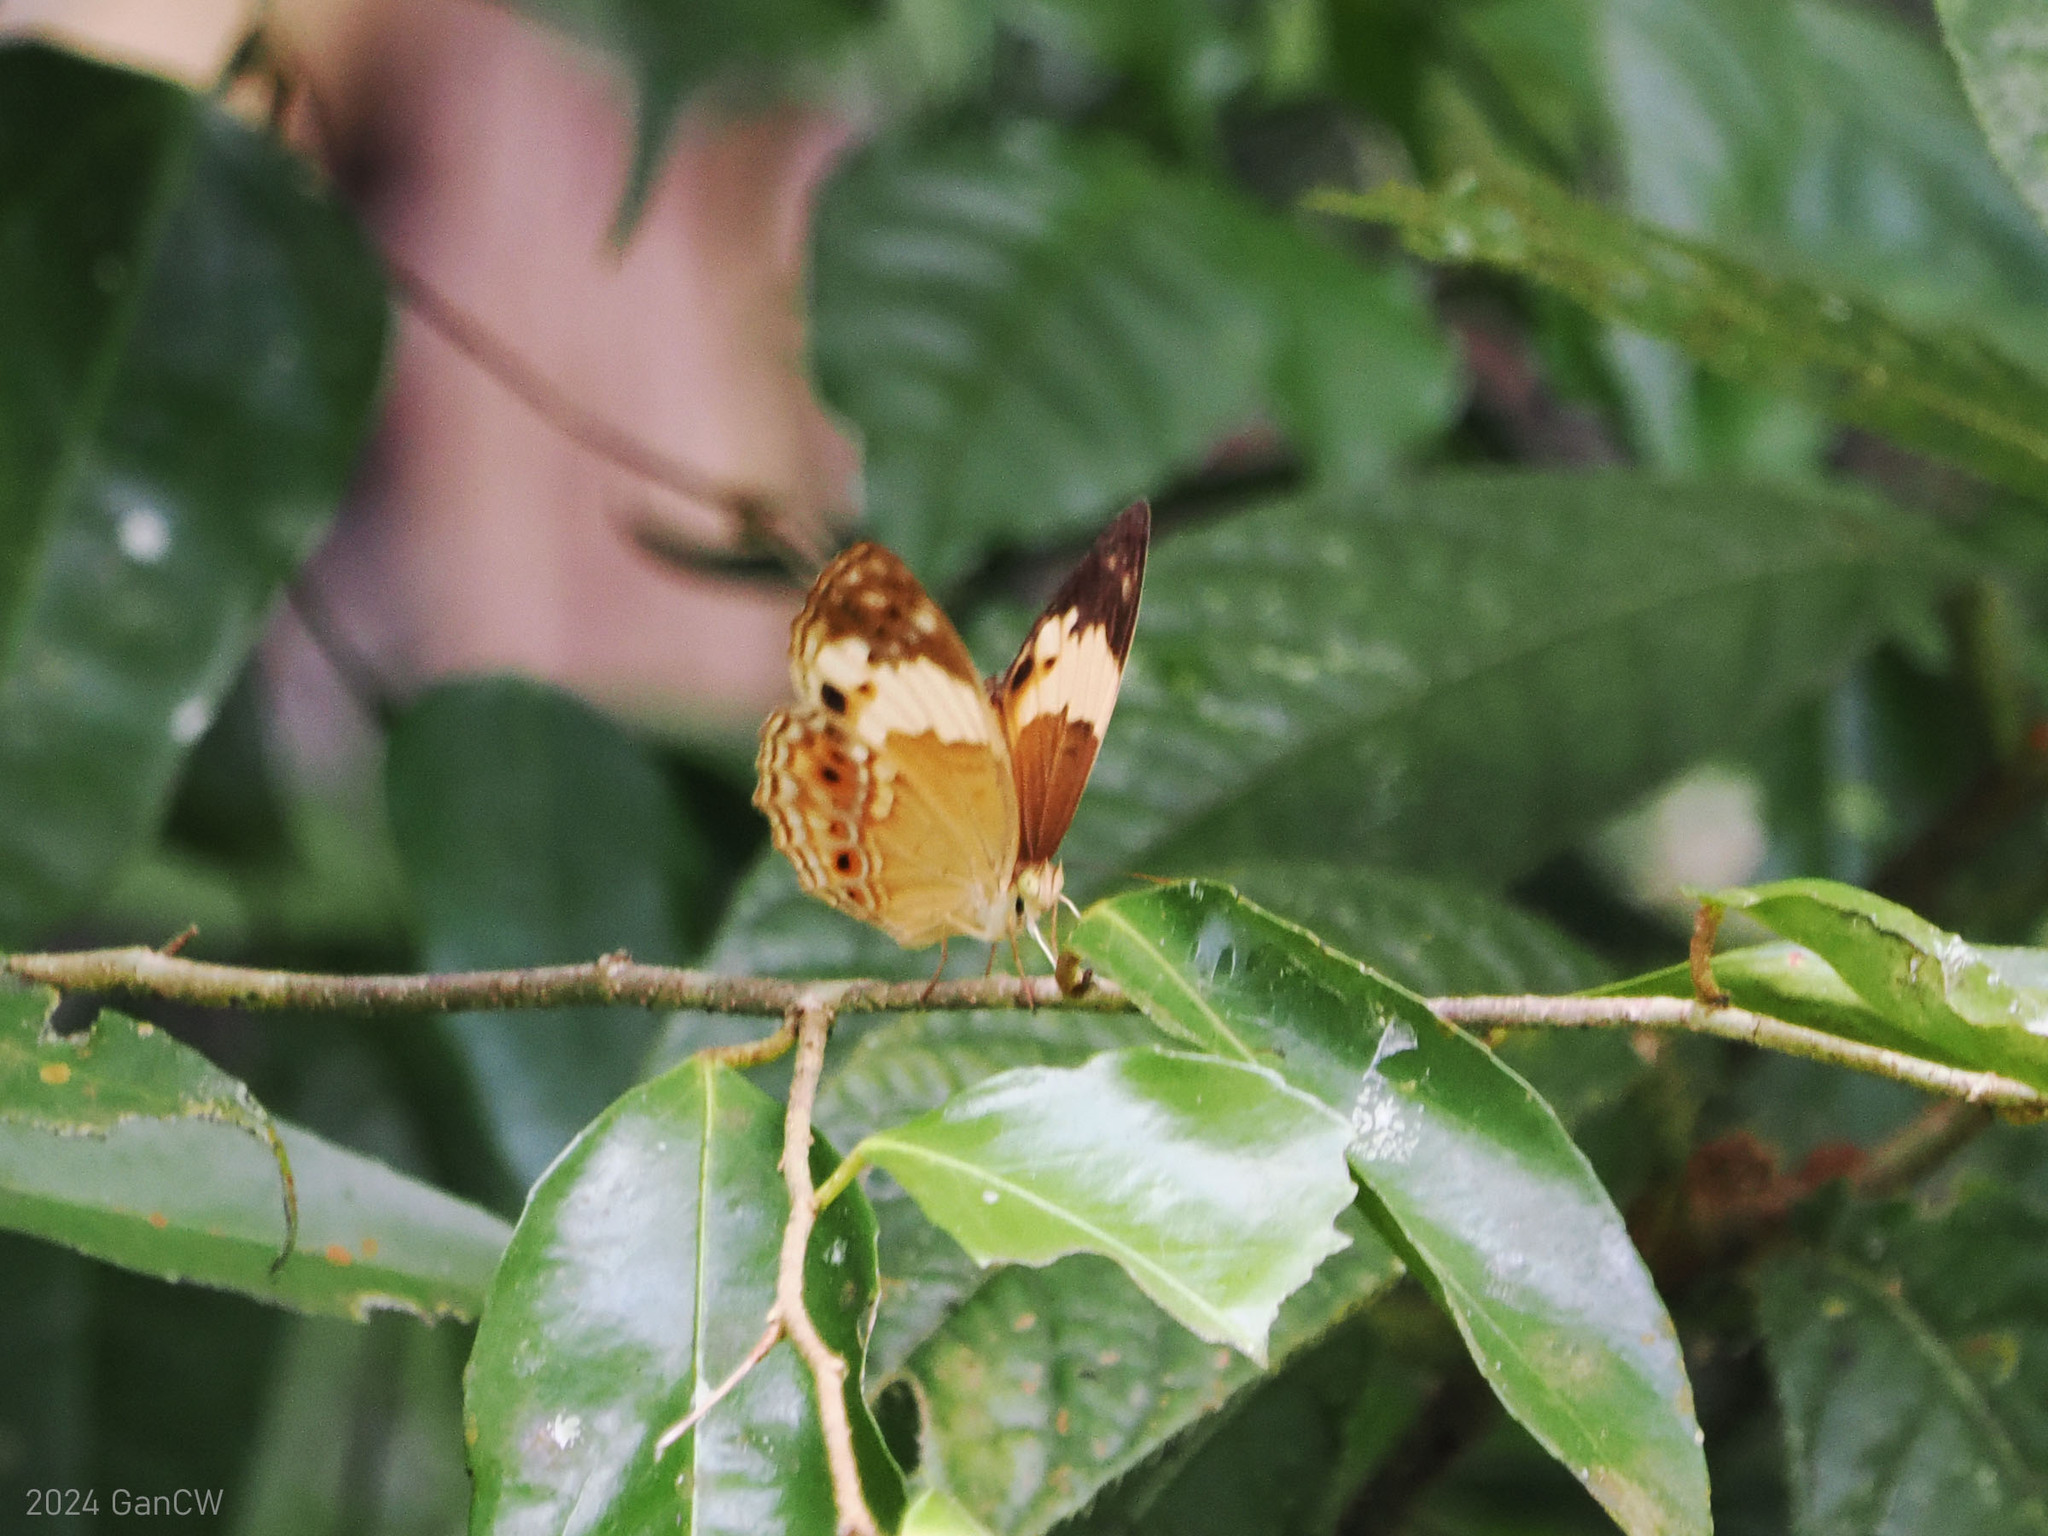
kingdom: Animalia
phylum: Arthropoda
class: Insecta
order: Lepidoptera
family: Nymphalidae
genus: Cupha
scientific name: Cupha arias
